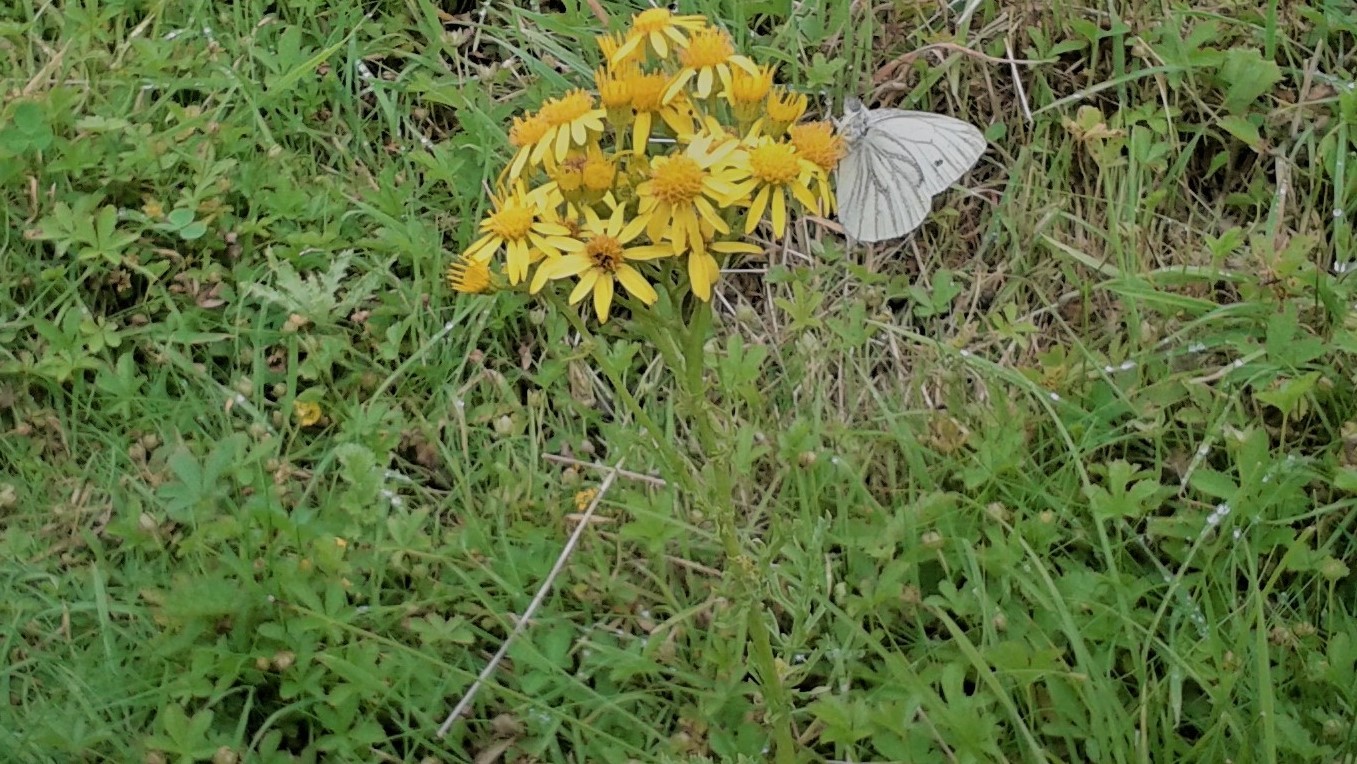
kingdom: Animalia
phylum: Arthropoda
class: Insecta
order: Lepidoptera
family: Pieridae
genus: Pieris
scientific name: Pieris napi
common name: Green-veined white
